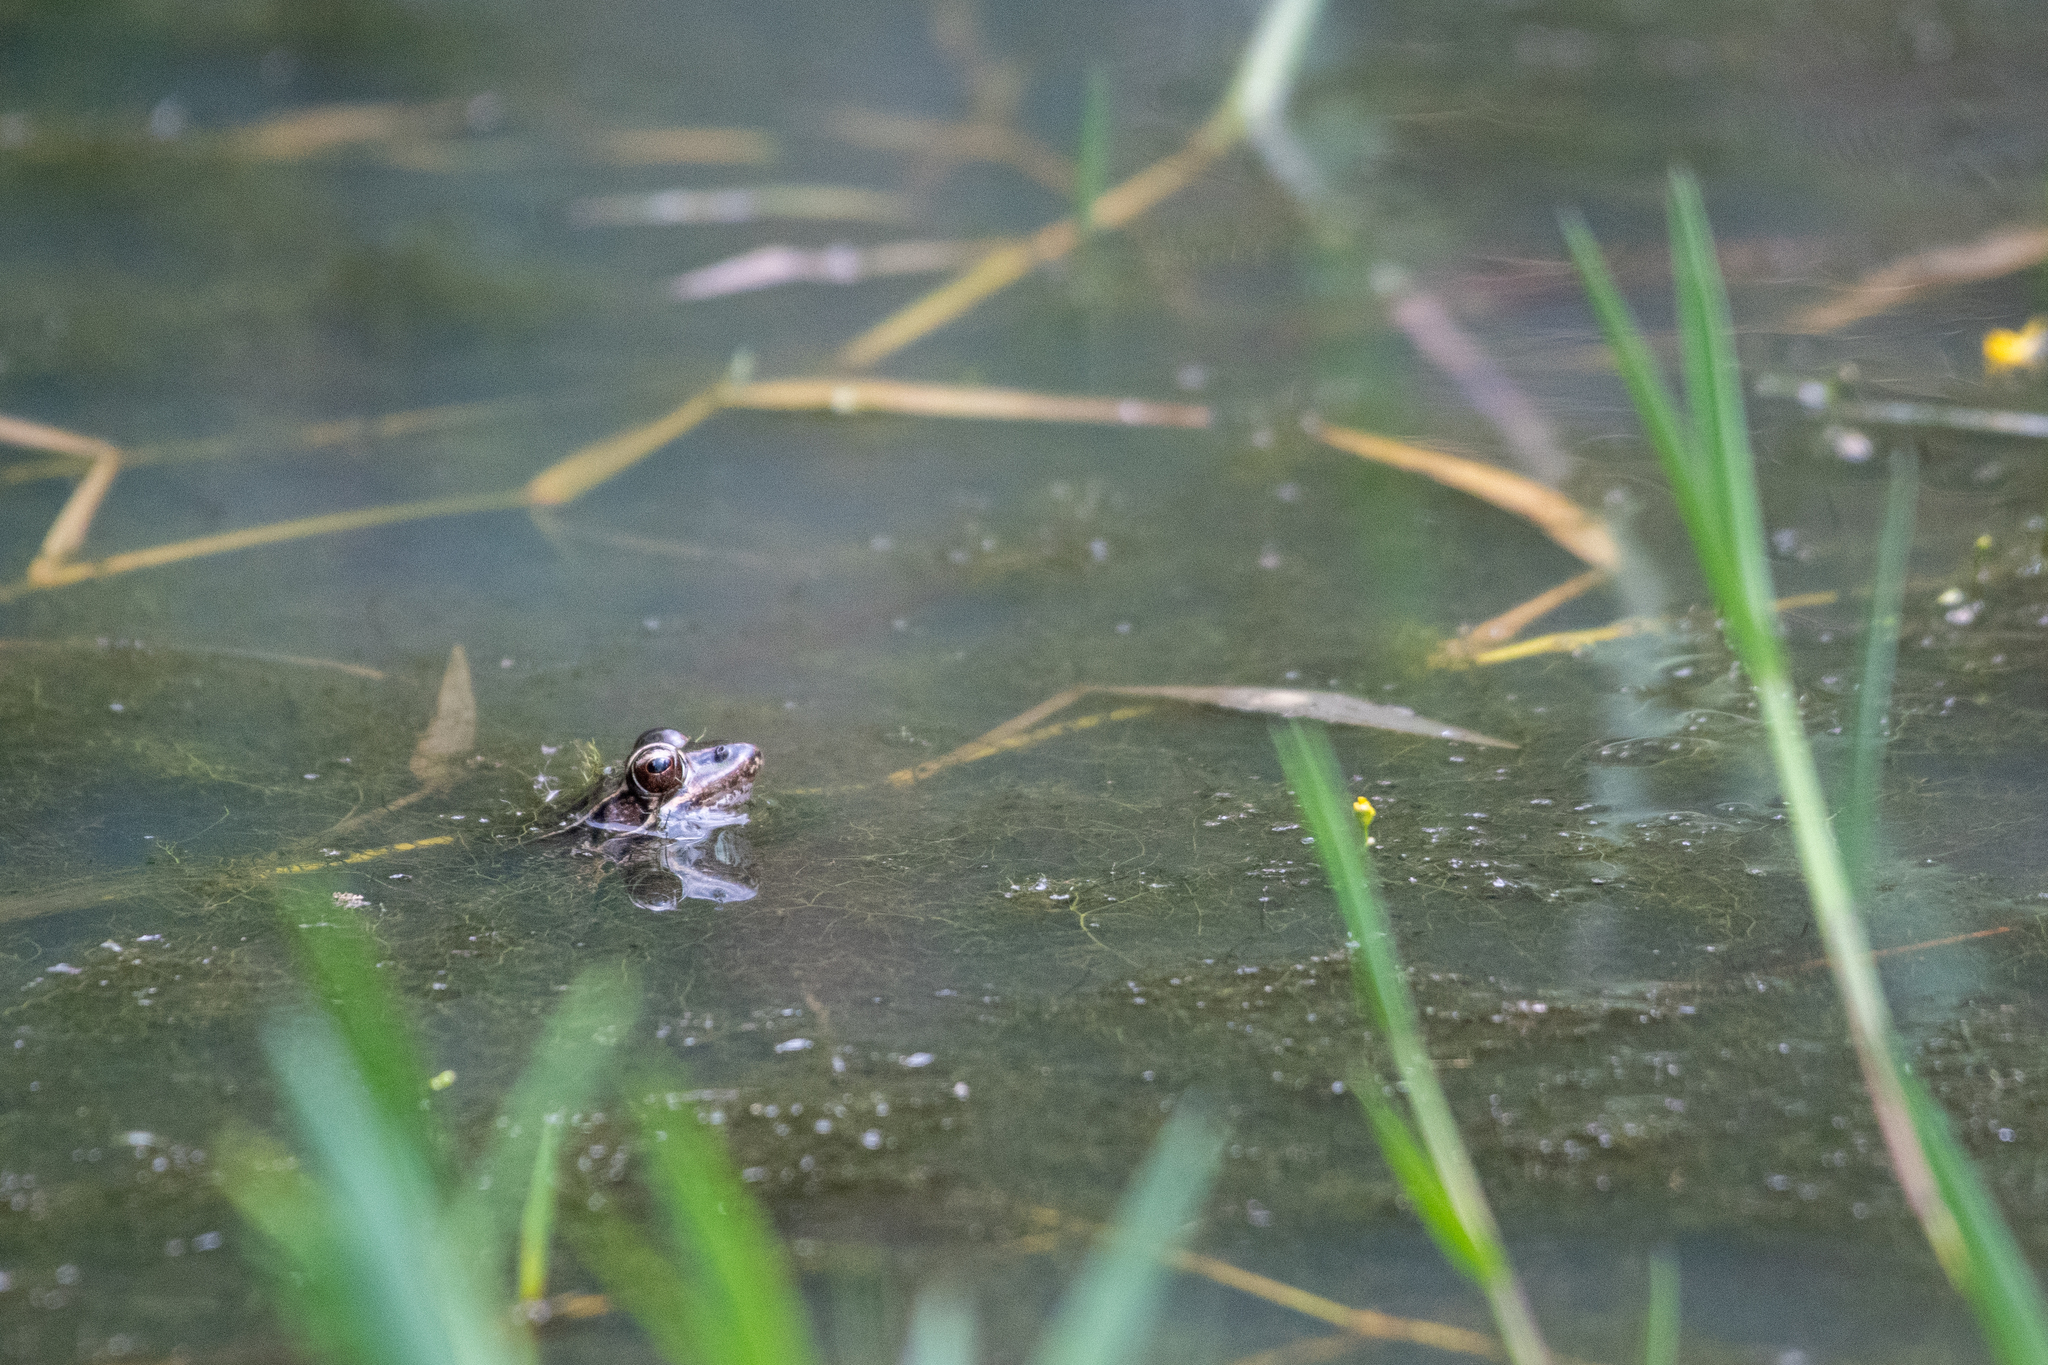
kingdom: Animalia
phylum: Chordata
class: Amphibia
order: Anura
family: Ranidae
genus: Lithobates
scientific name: Lithobates lenca
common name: Lenca leopard frog
